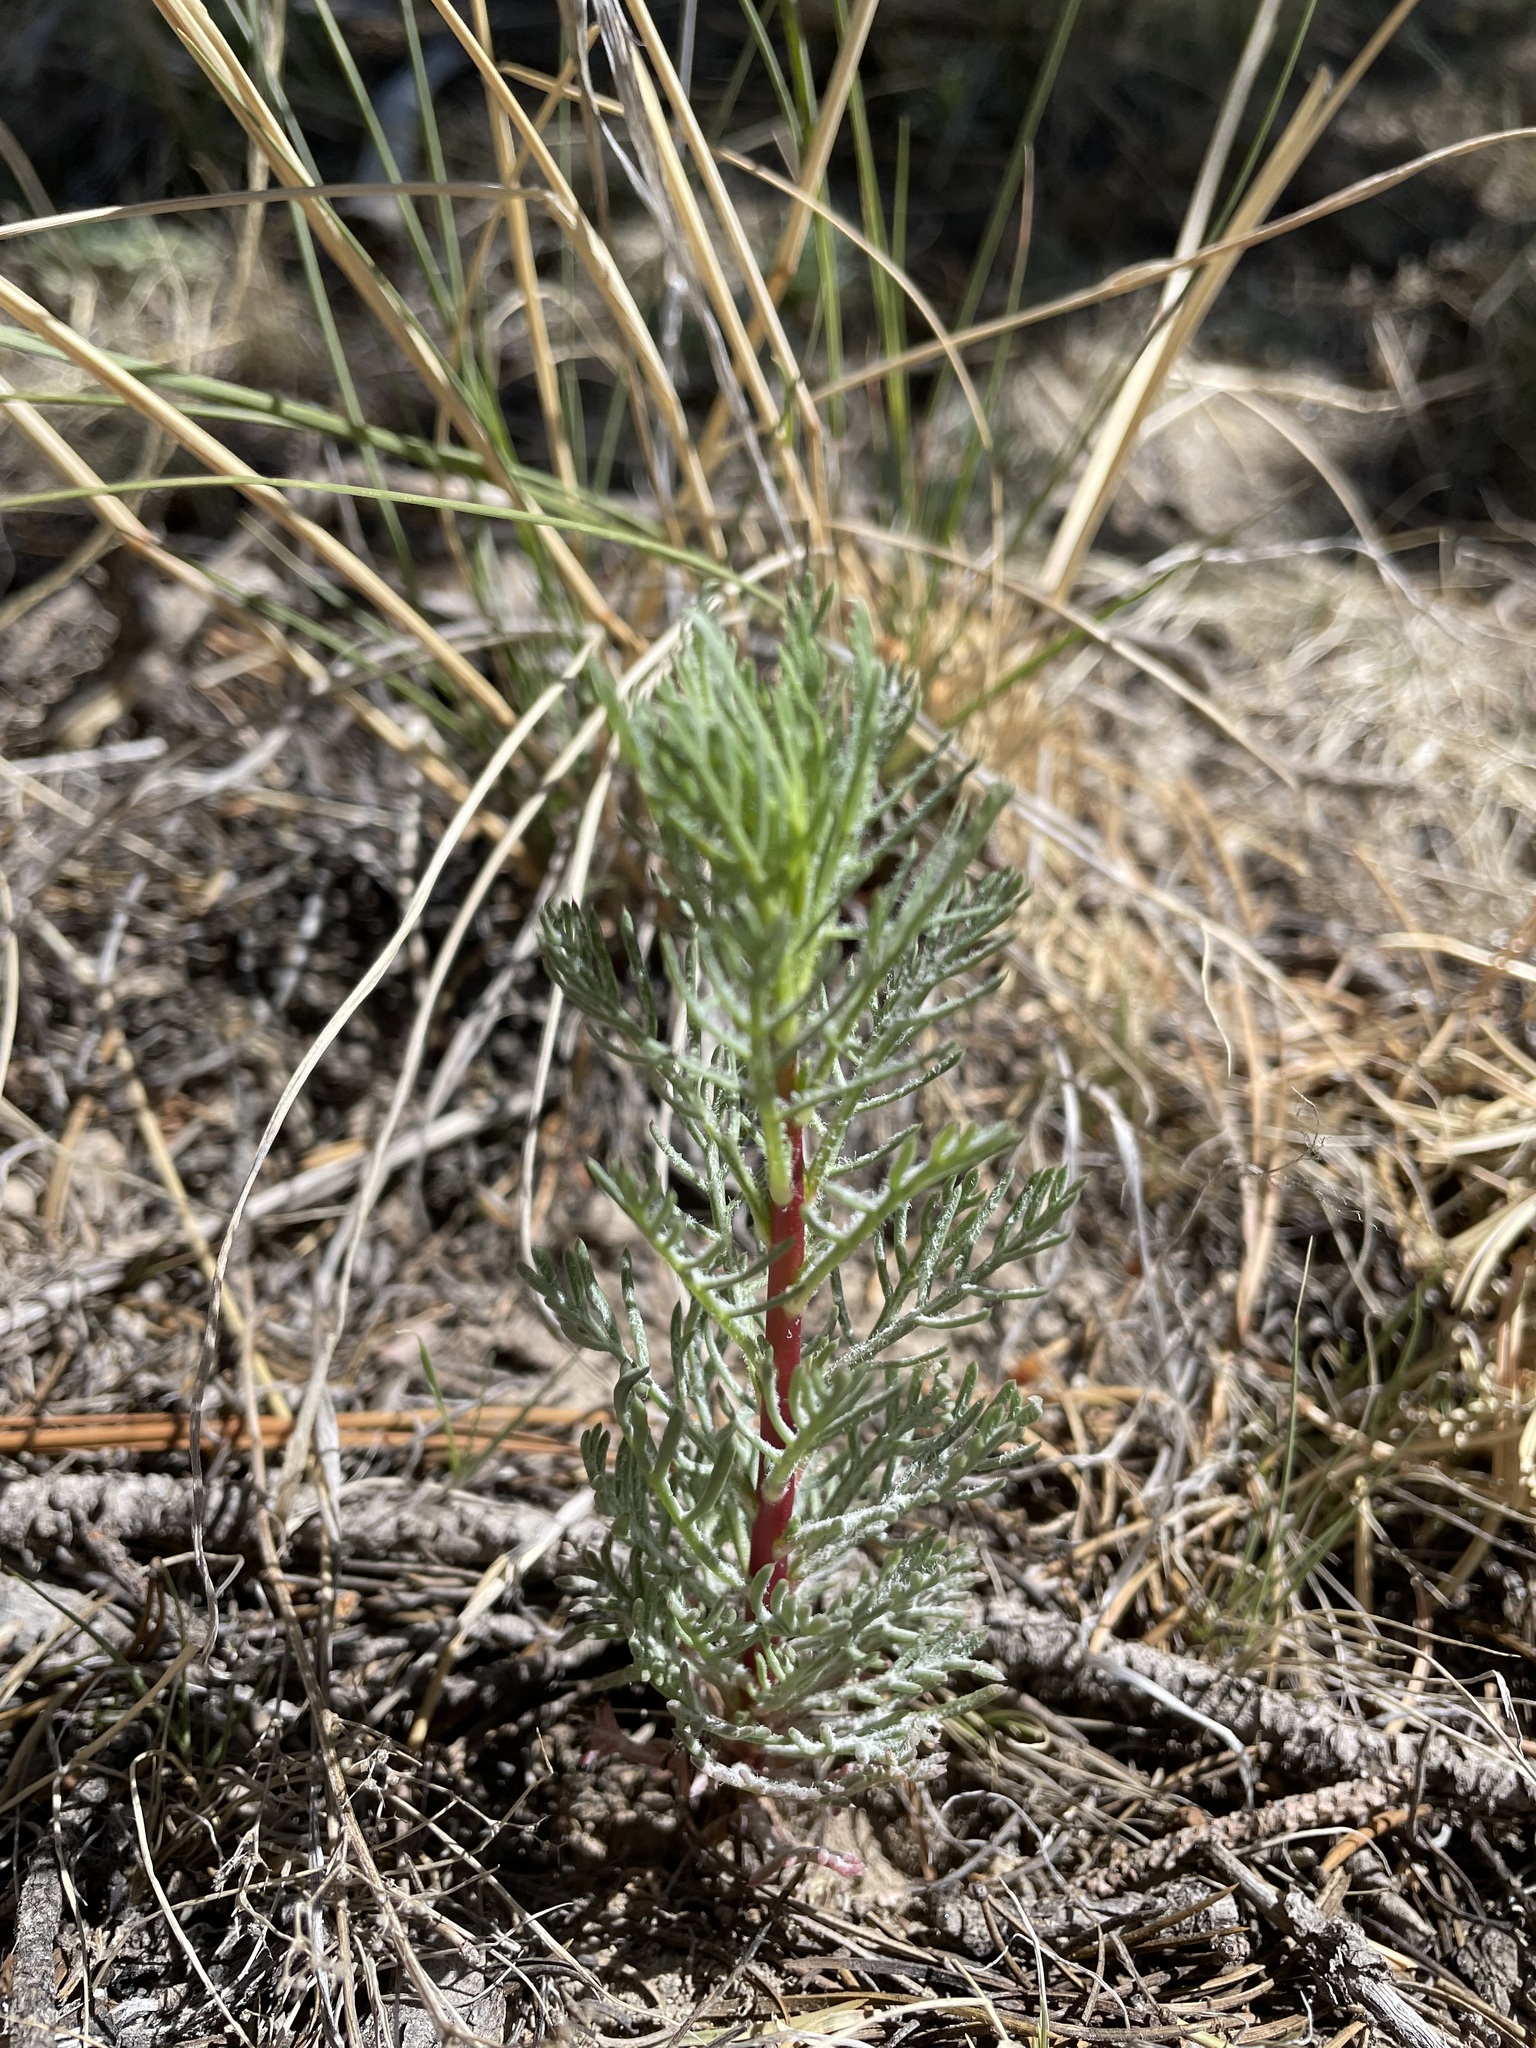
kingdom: Plantae
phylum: Tracheophyta
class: Magnoliopsida
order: Ericales
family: Polemoniaceae
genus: Ipomopsis
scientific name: Ipomopsis aggregata
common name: Scarlet gilia
